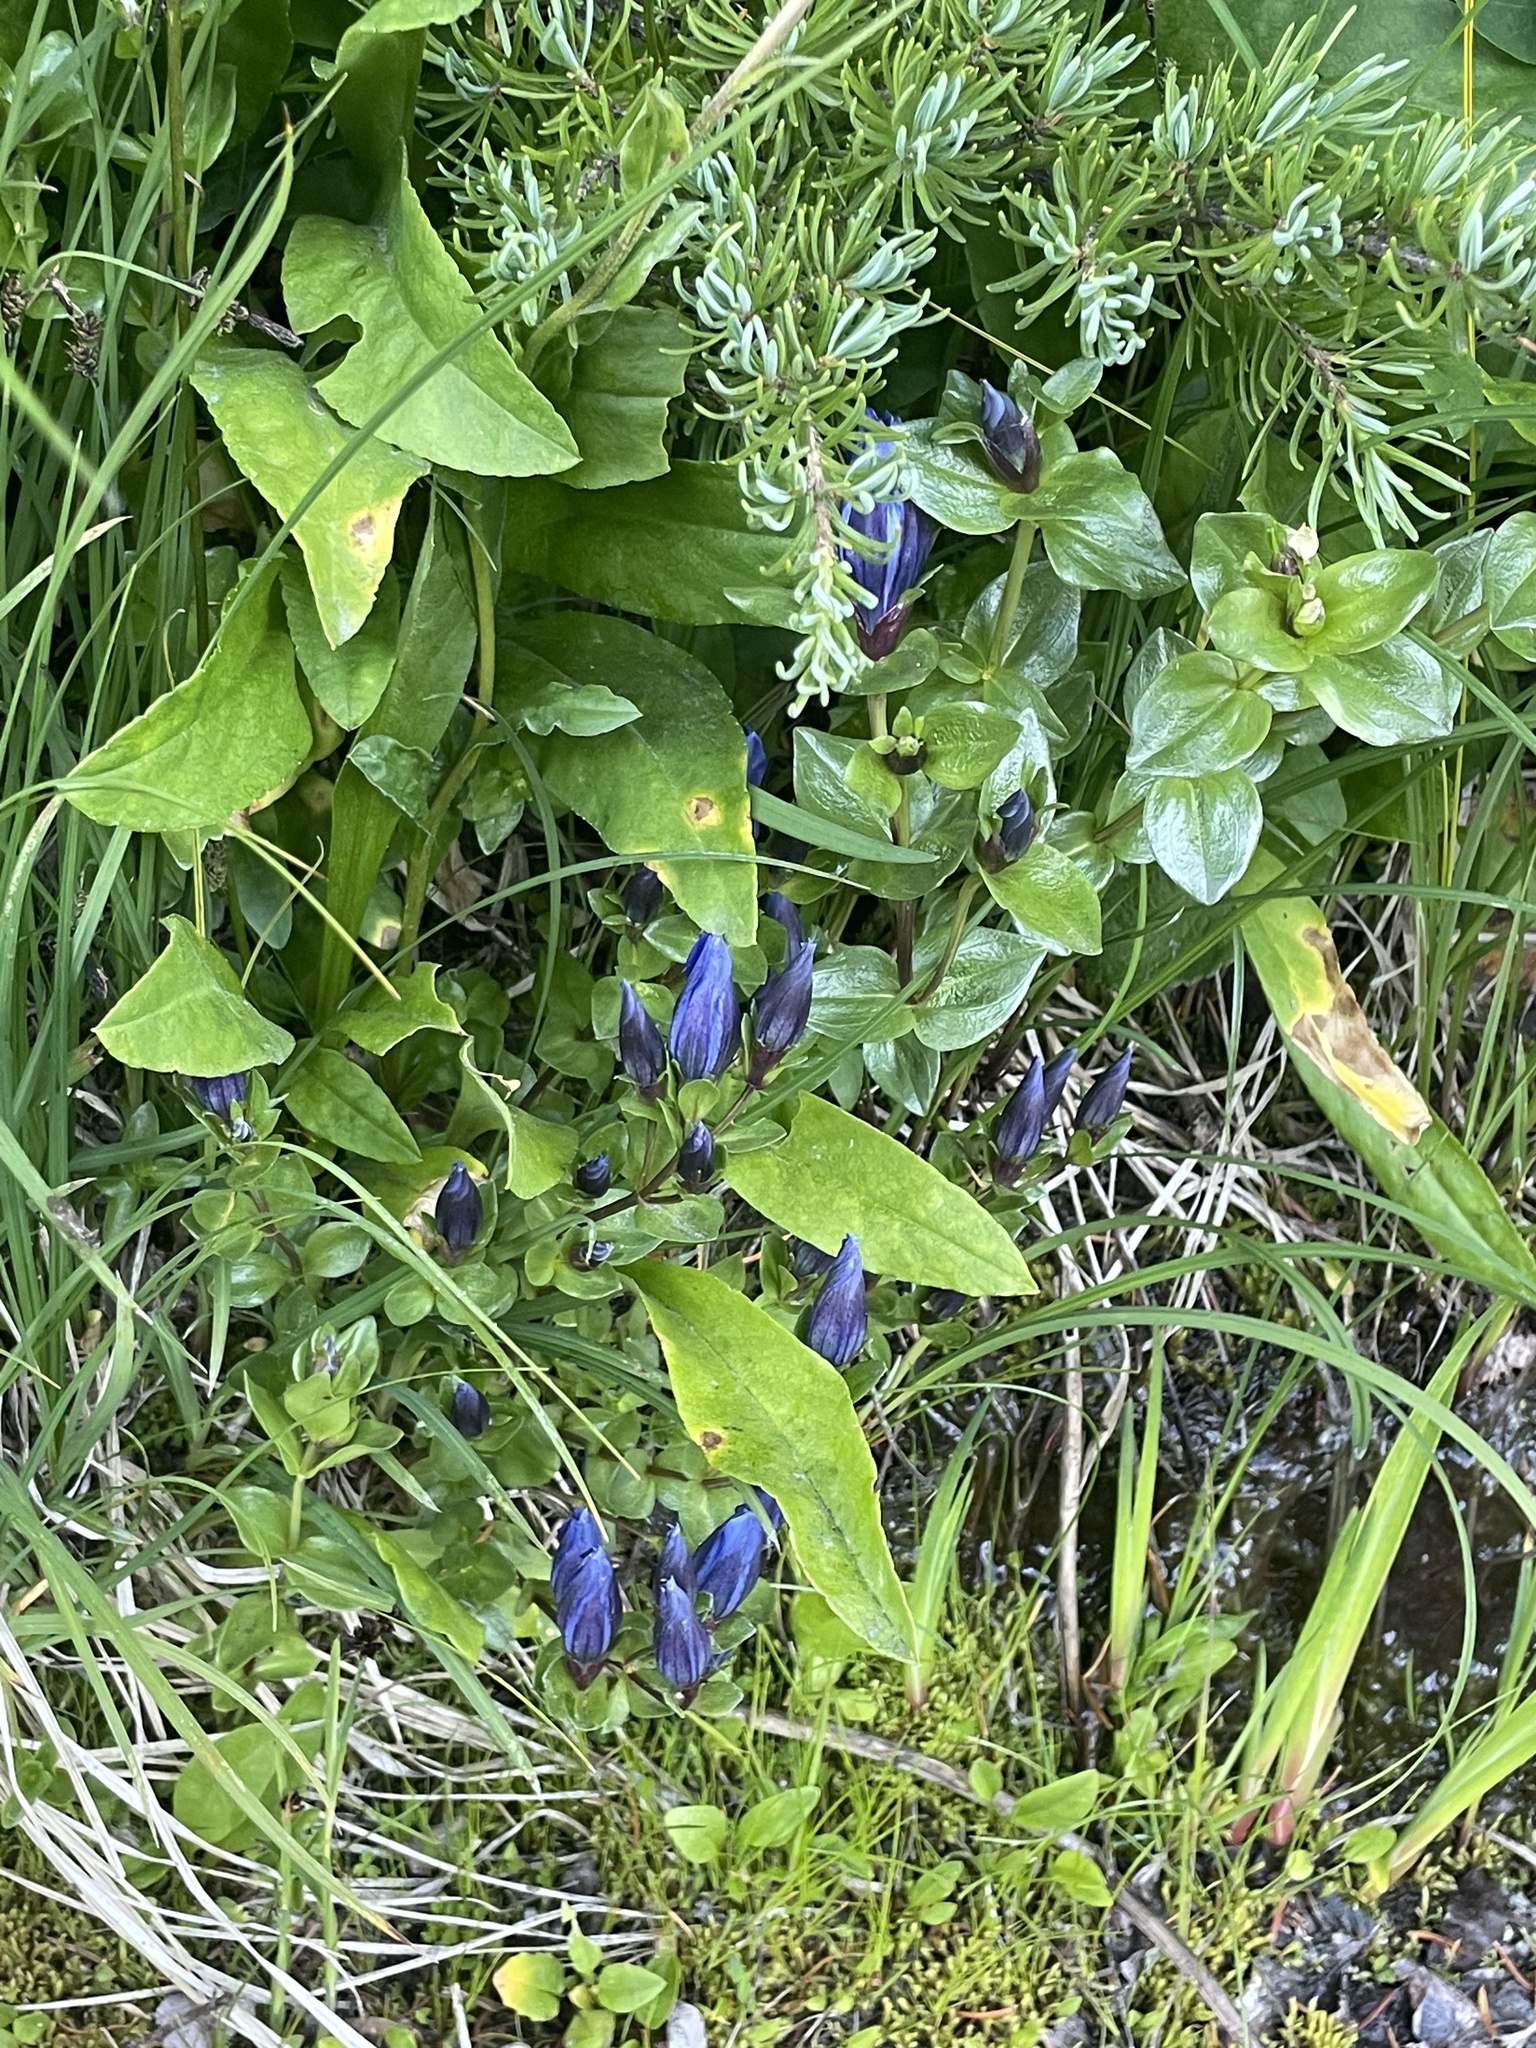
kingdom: Plantae
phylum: Tracheophyta
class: Magnoliopsida
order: Gentianales
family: Gentianaceae
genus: Gentiana
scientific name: Gentiana calycosa
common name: Rainier pleated gentian
